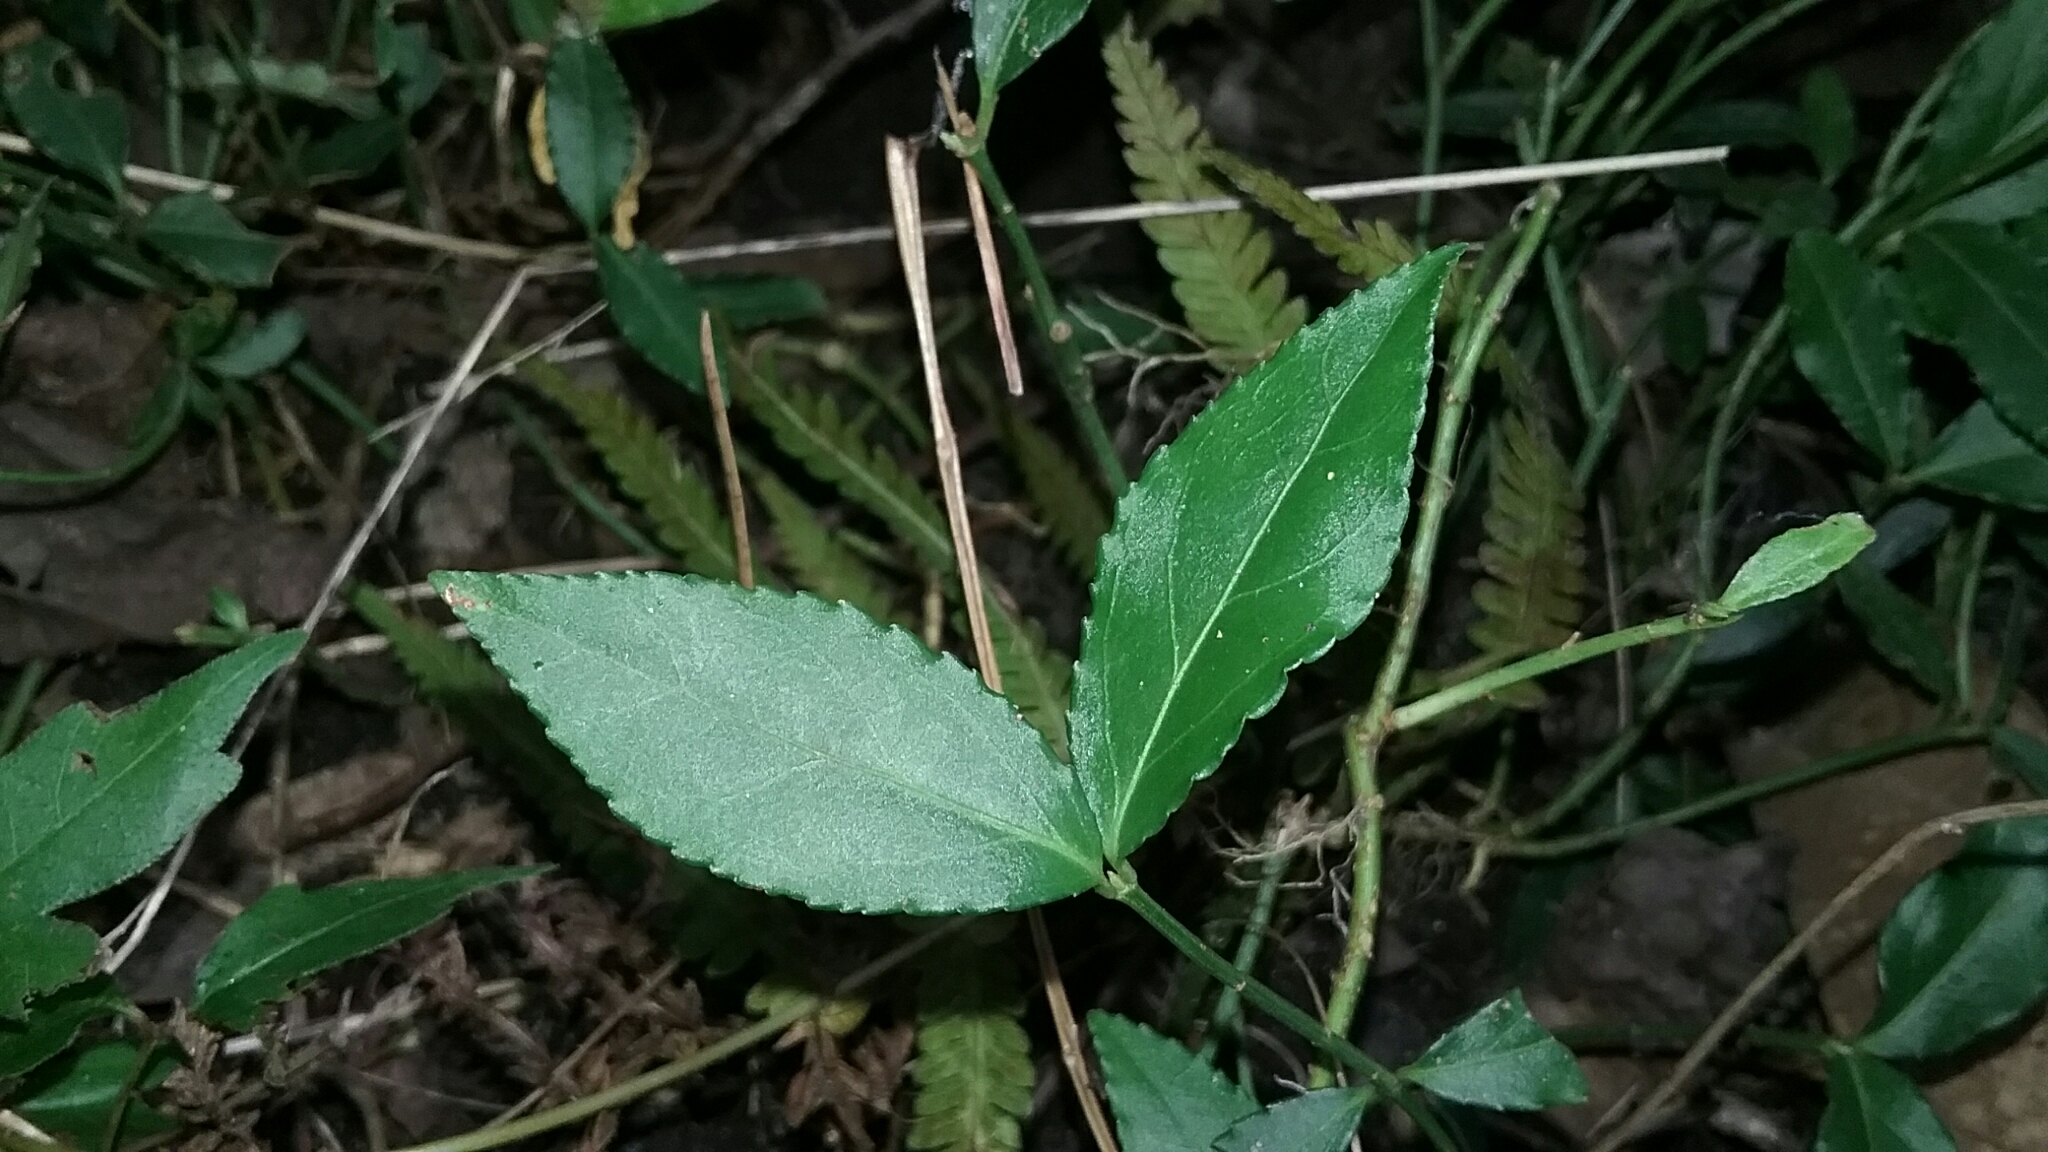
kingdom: Plantae
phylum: Tracheophyta
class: Magnoliopsida
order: Celastrales
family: Celastraceae
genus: Euonymus
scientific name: Euonymus americanus
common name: Bursting-heart
